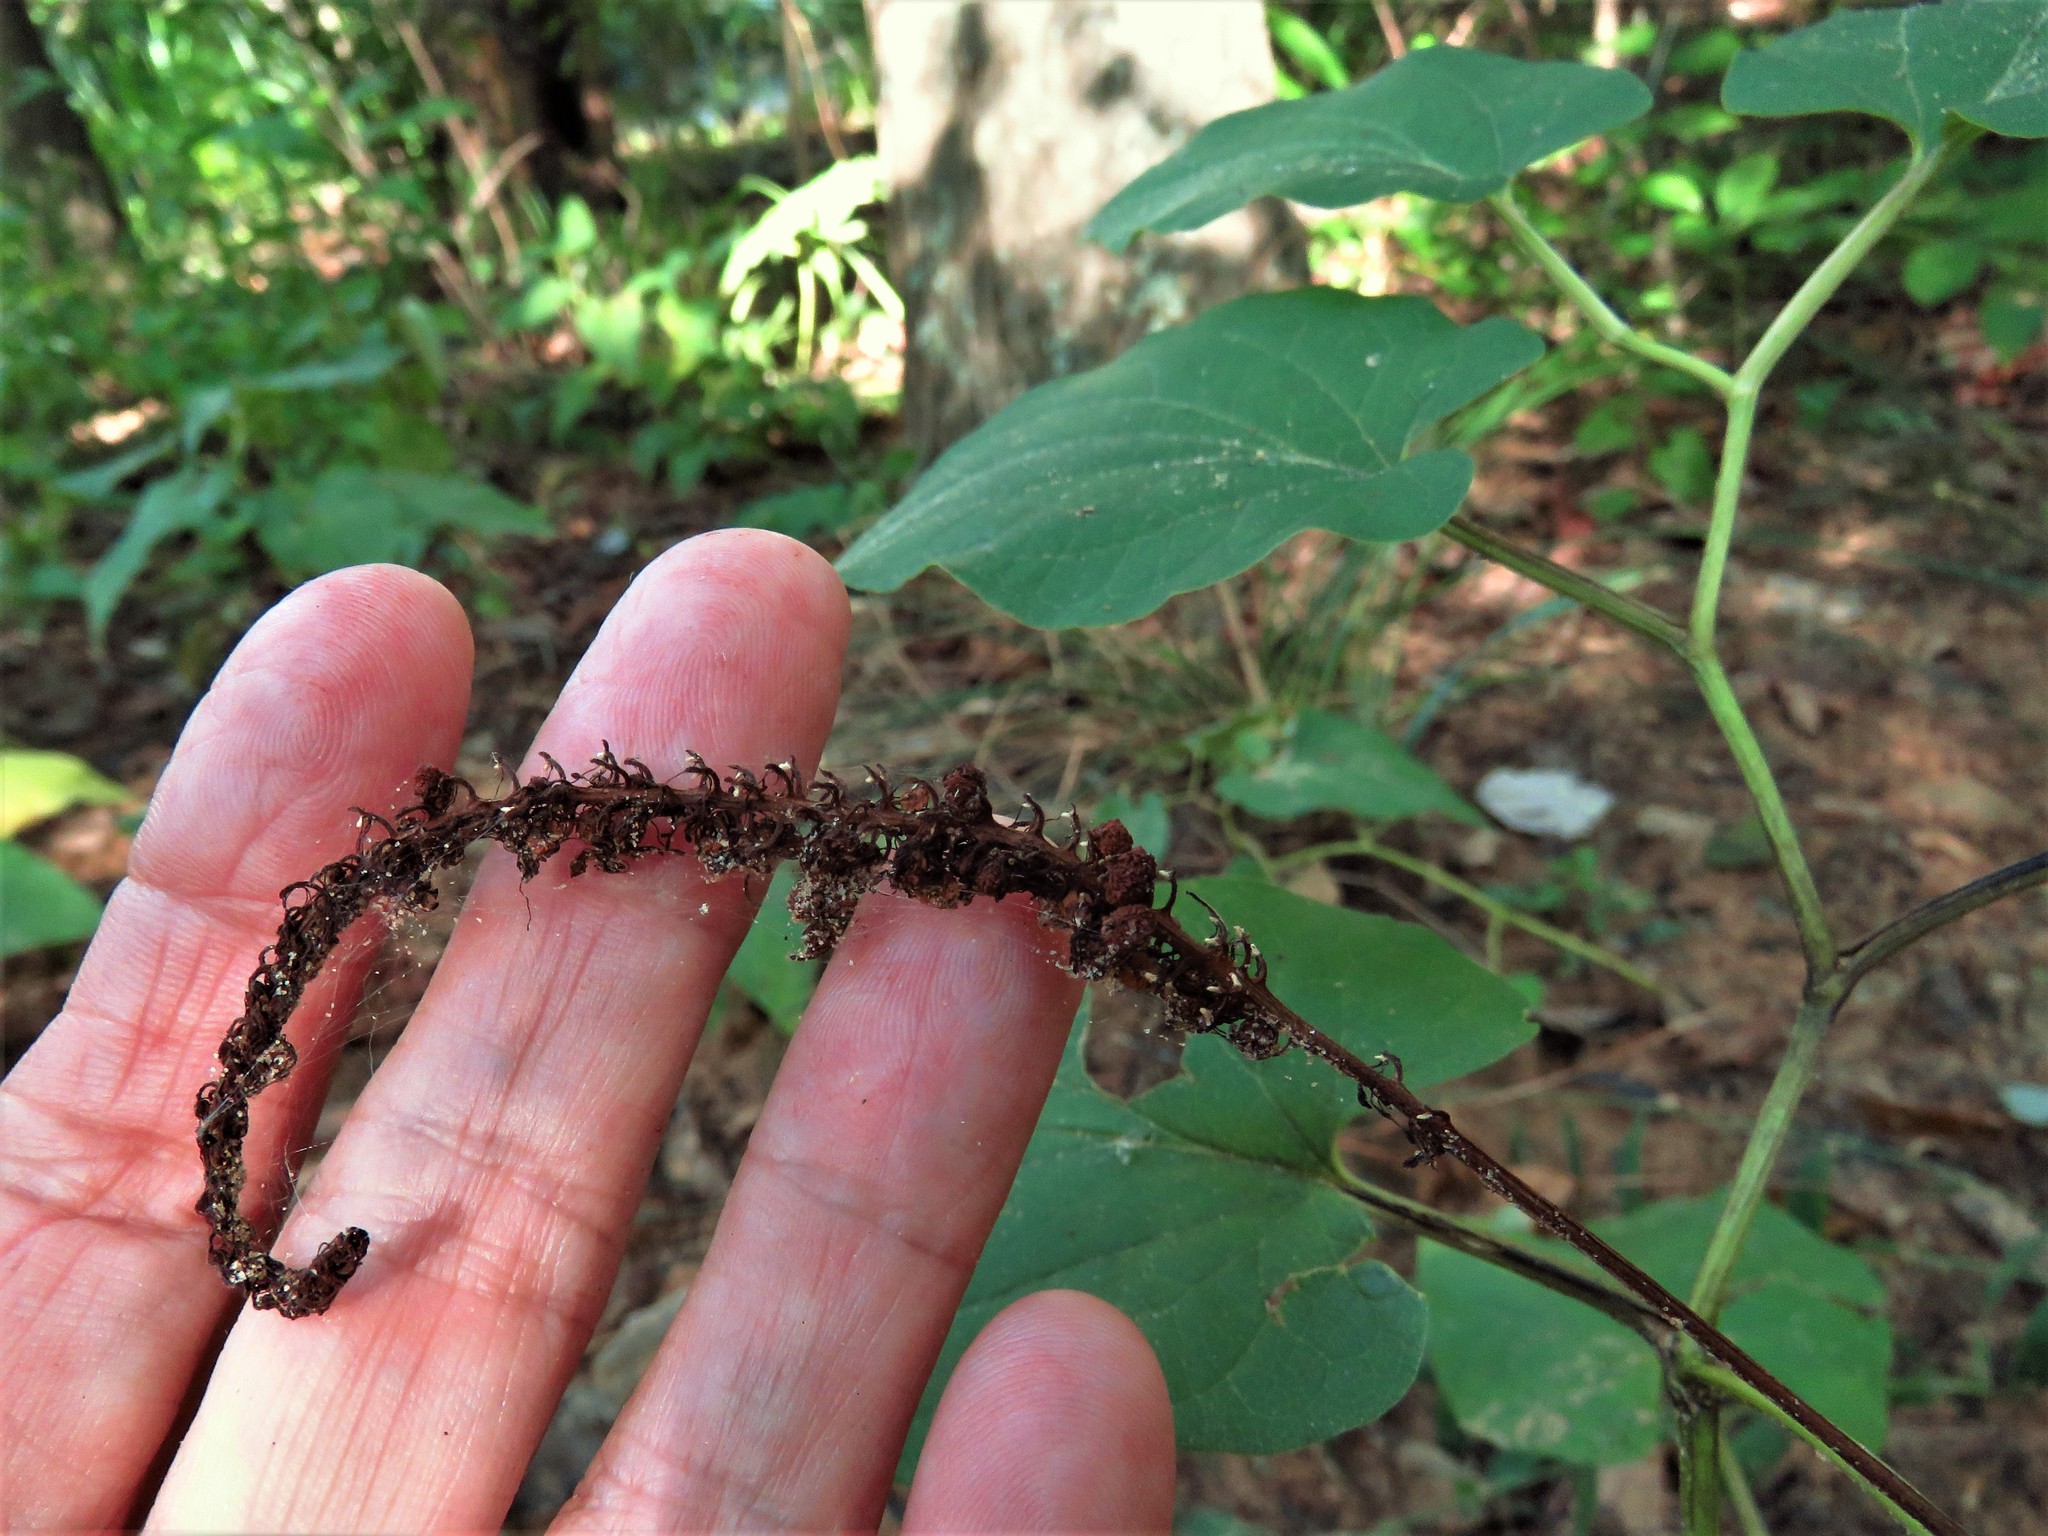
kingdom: Plantae
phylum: Tracheophyta
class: Magnoliopsida
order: Piperales
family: Saururaceae
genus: Saururus
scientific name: Saururus cernuus
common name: Lizard's-tail
